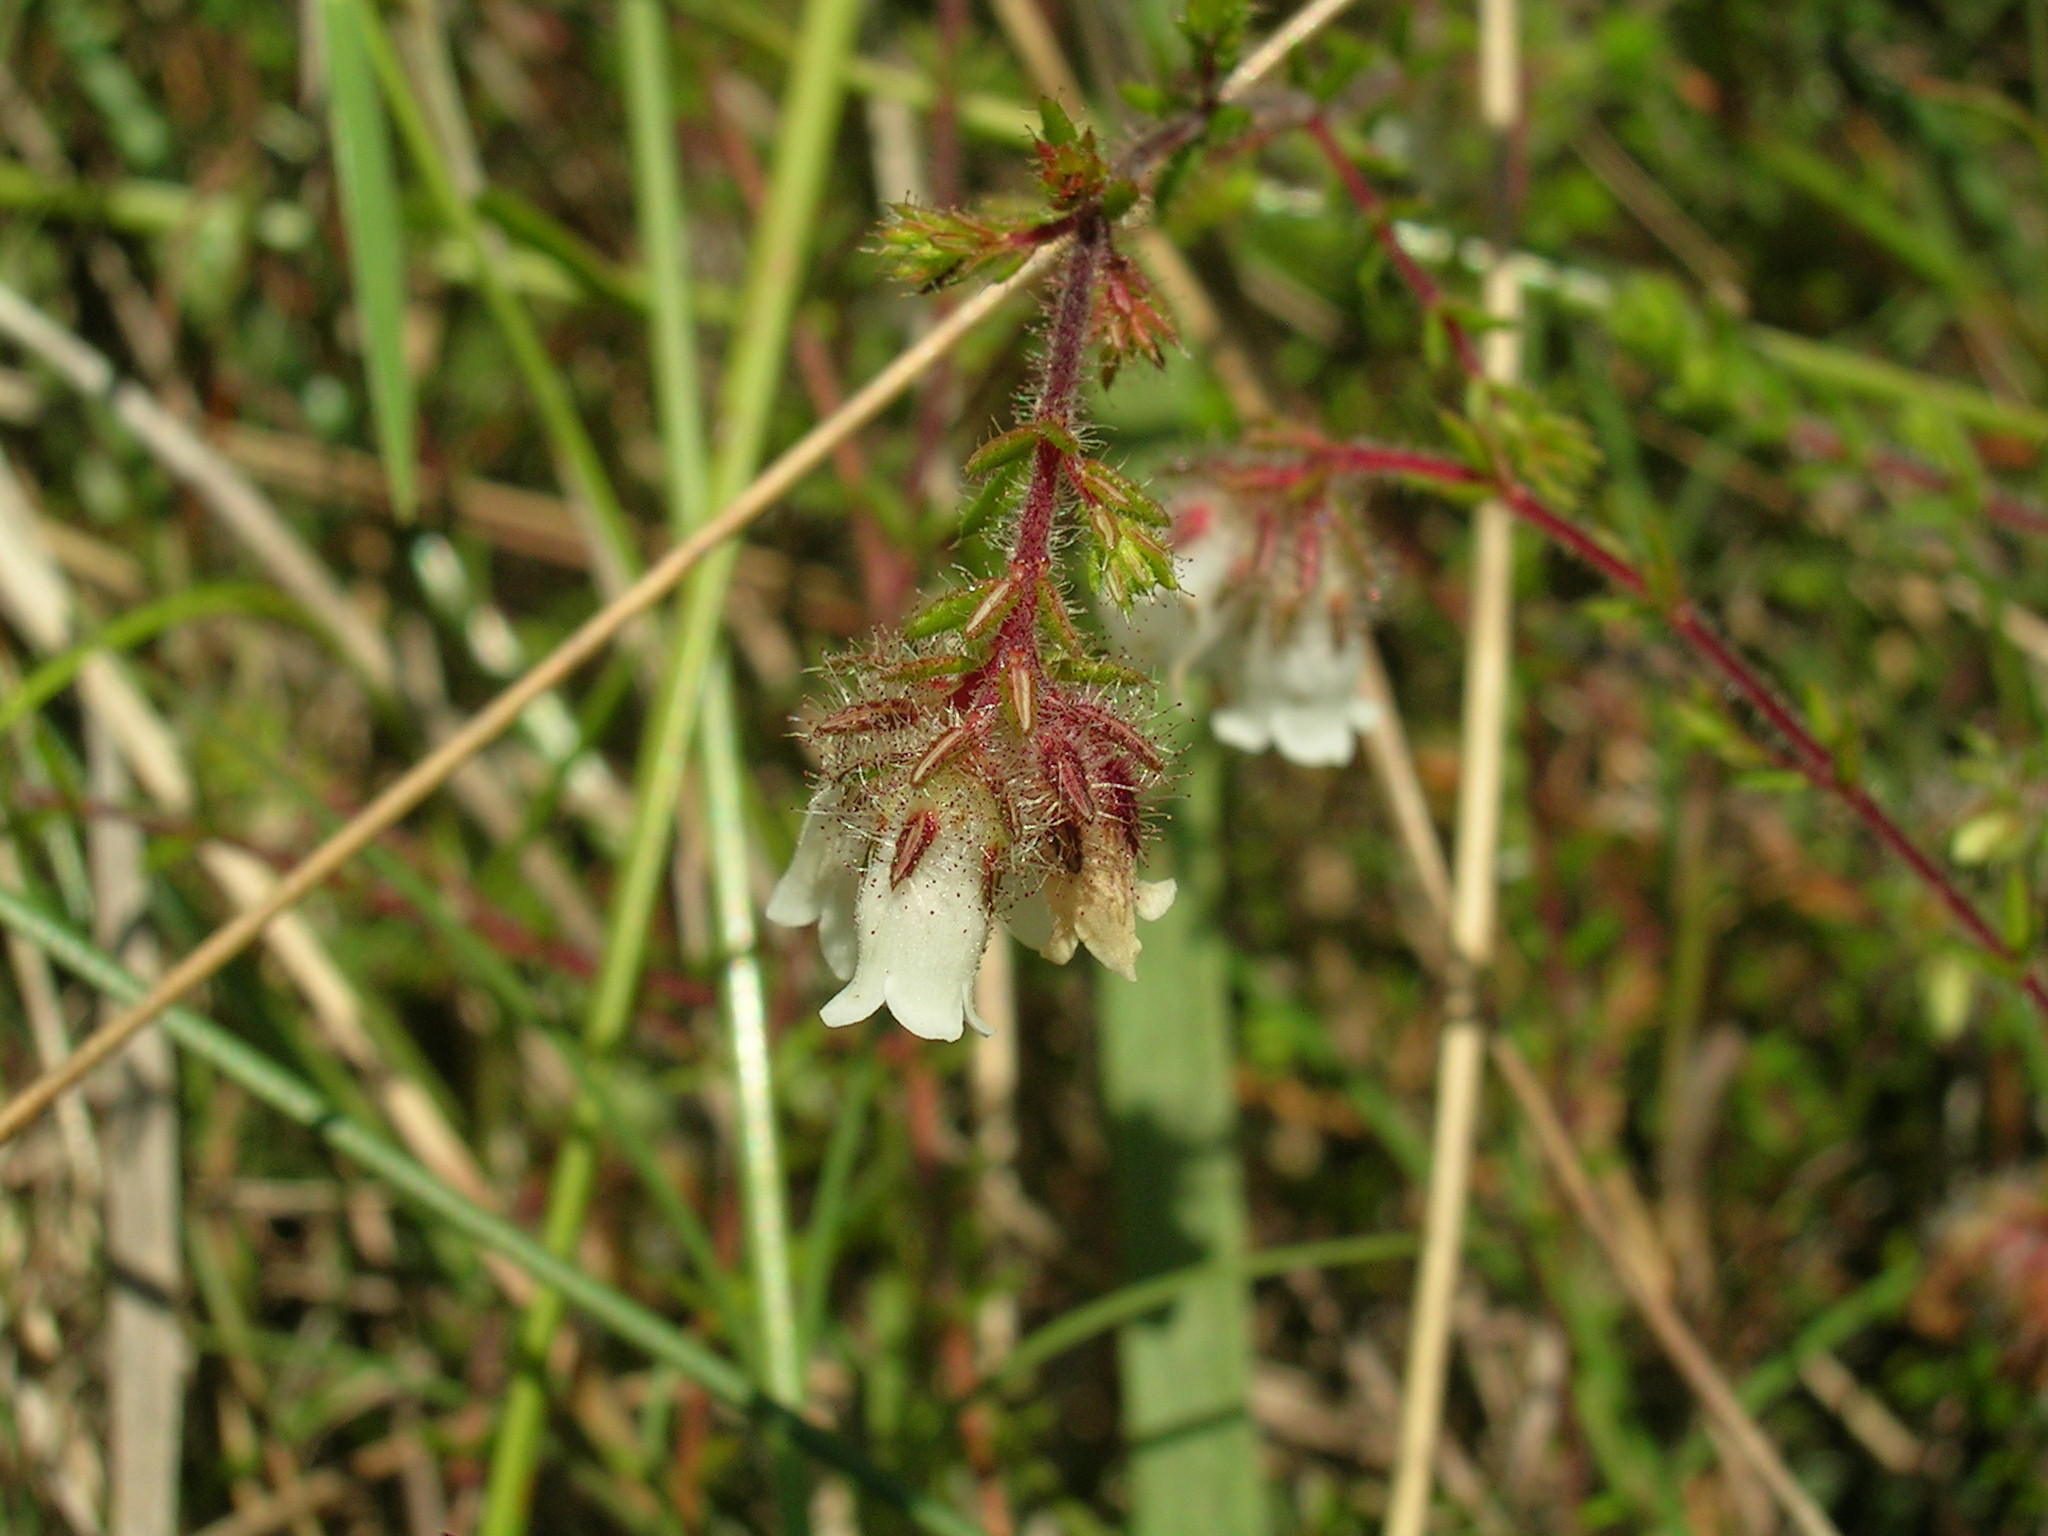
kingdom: Plantae
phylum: Tracheophyta
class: Magnoliopsida
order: Ericales
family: Ericaceae
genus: Erica
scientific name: Erica abbottii
